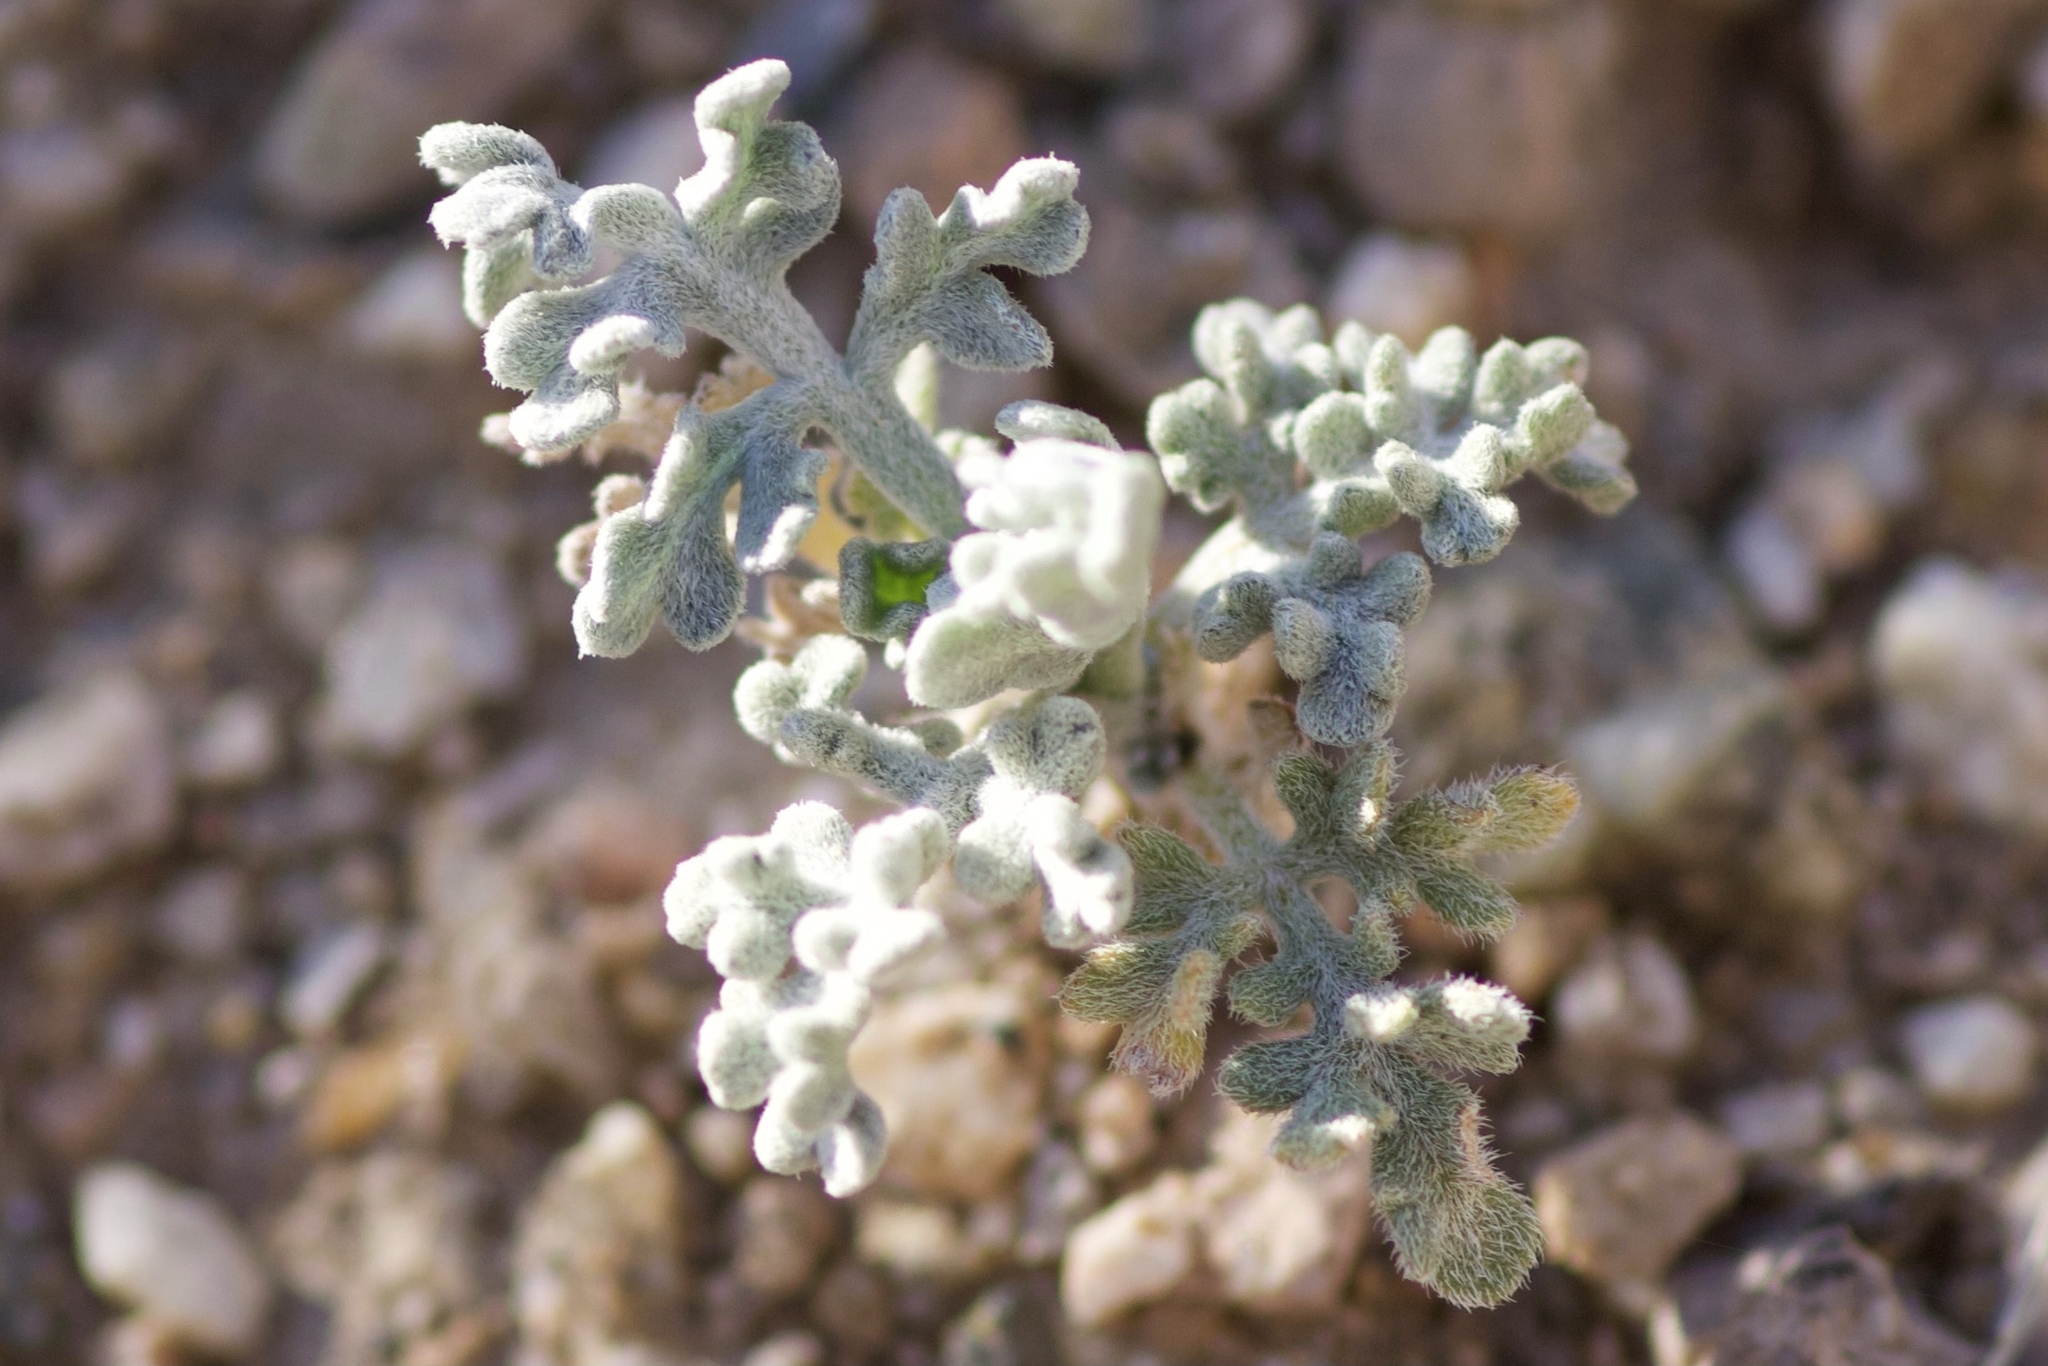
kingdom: Plantae
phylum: Tracheophyta
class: Magnoliopsida
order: Asterales
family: Asteraceae
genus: Ambrosia
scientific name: Ambrosia dumosa
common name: Bur-sage
